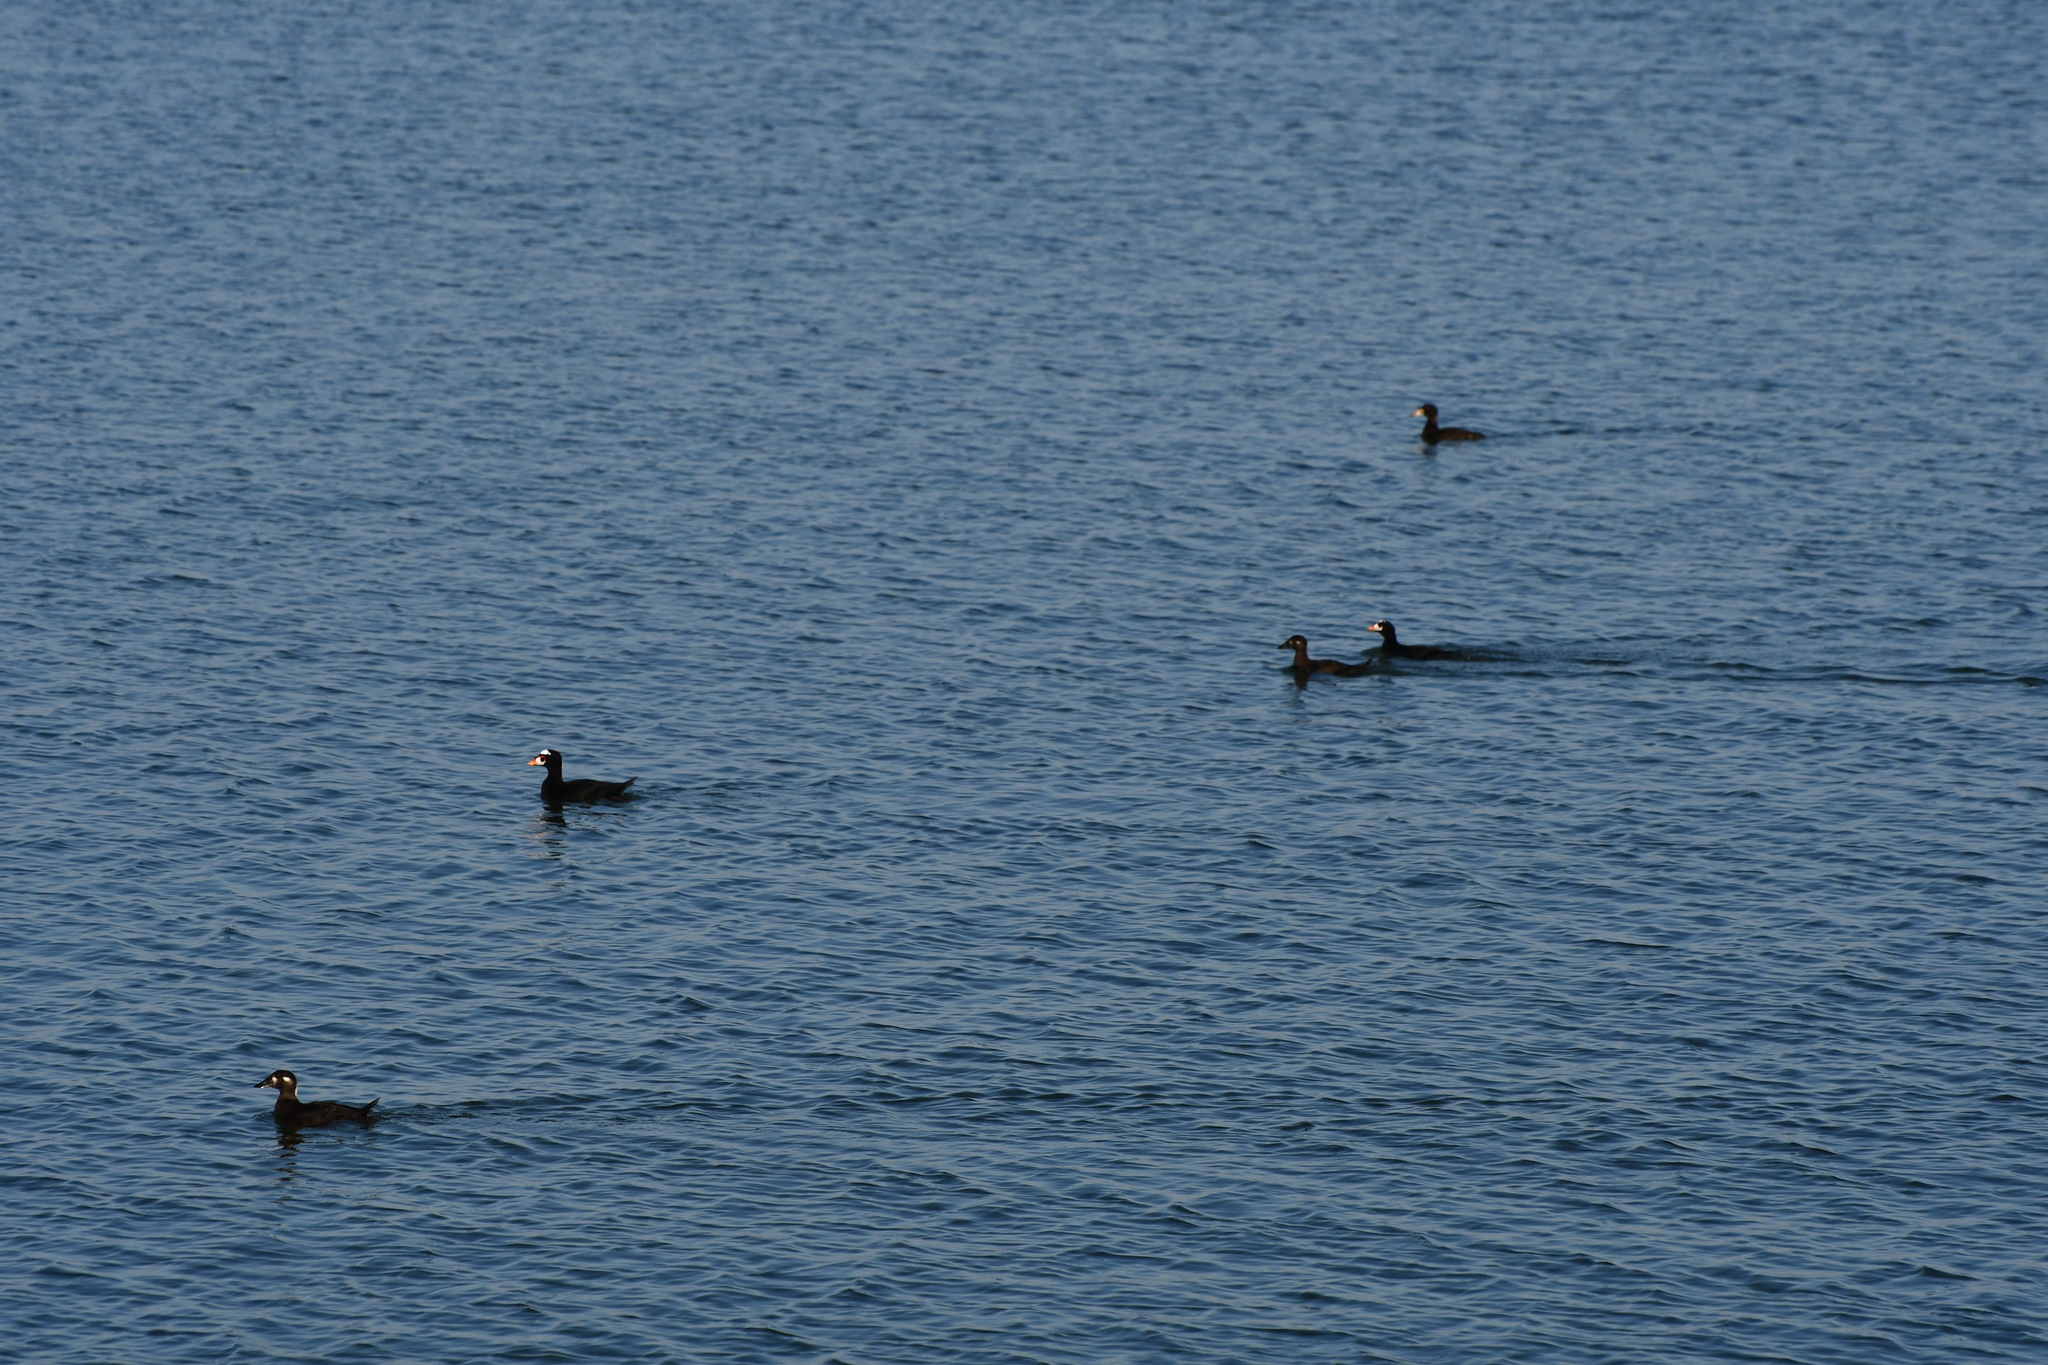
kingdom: Animalia
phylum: Chordata
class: Aves
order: Anseriformes
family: Anatidae
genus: Melanitta
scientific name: Melanitta perspicillata
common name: Surf scoter
